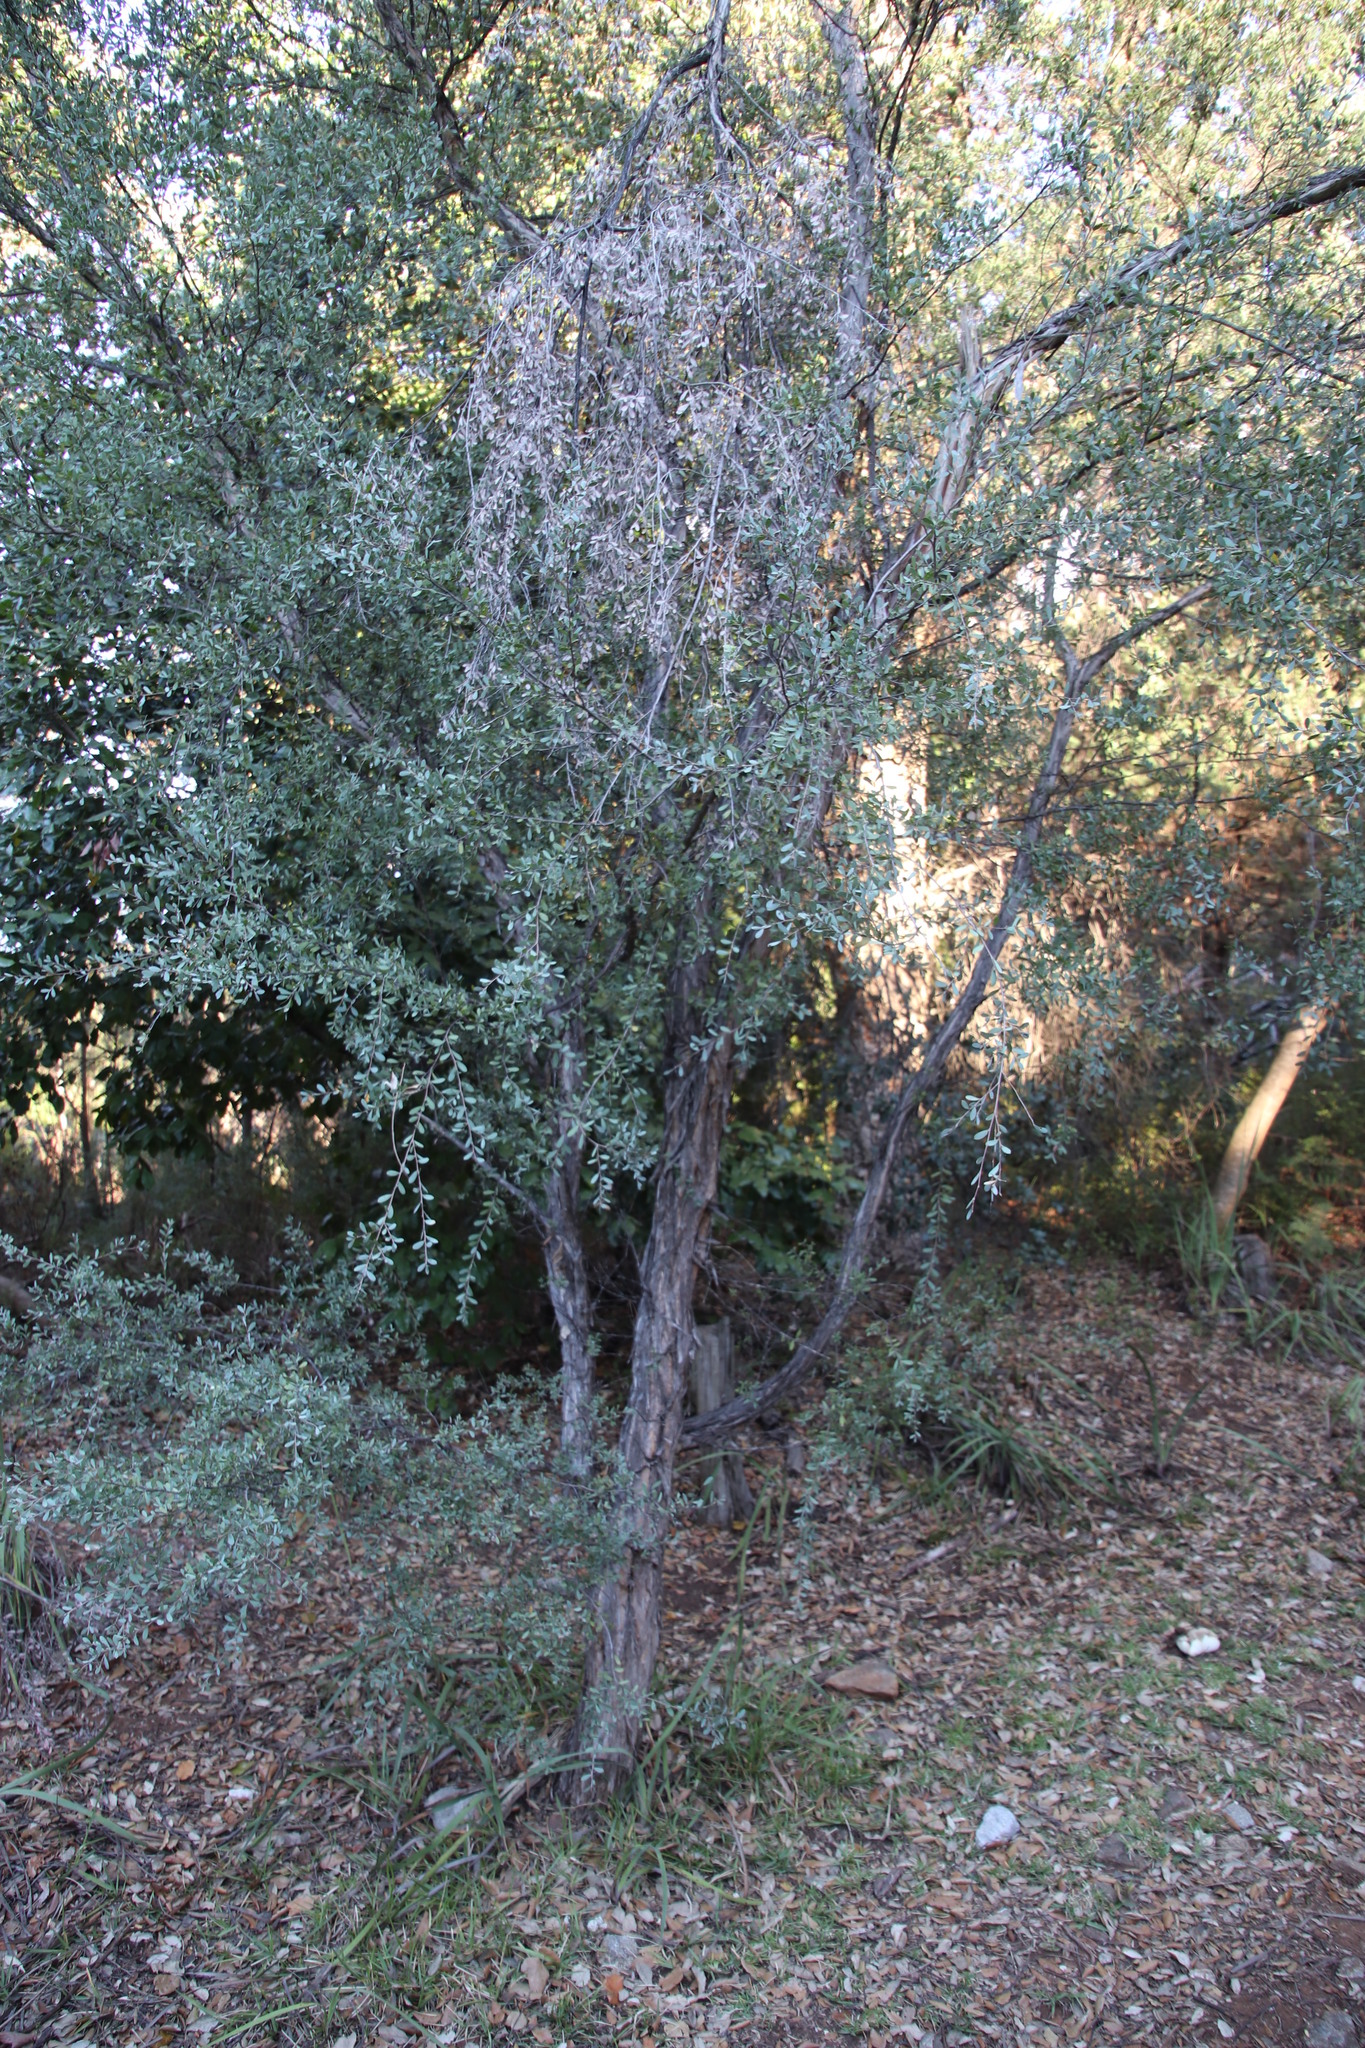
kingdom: Plantae
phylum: Tracheophyta
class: Magnoliopsida
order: Myrtales
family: Myrtaceae
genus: Leptospermum
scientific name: Leptospermum laevigatum
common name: Australian teatree
